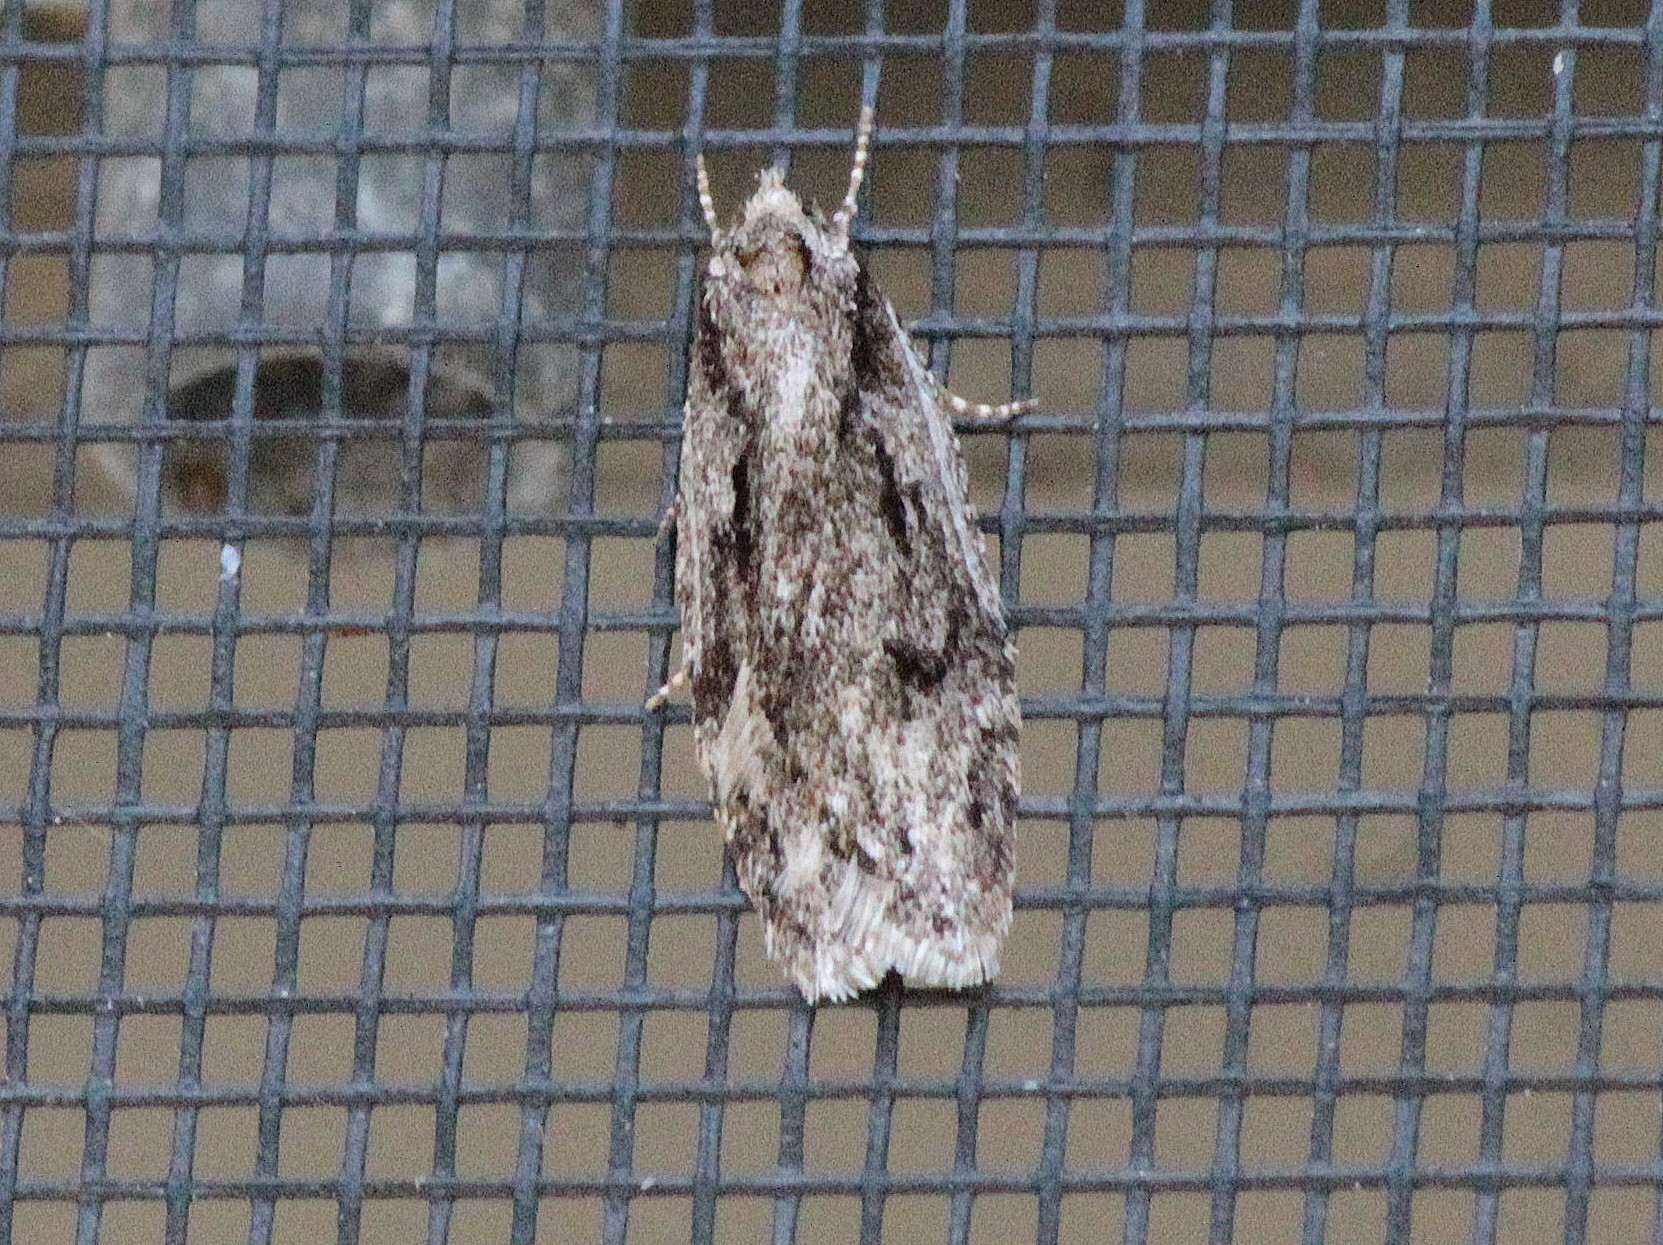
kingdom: Animalia
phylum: Arthropoda
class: Insecta
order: Lepidoptera
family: Depressariidae
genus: Semioscopis
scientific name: Semioscopis aurorella
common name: Aurora flatbody moth
